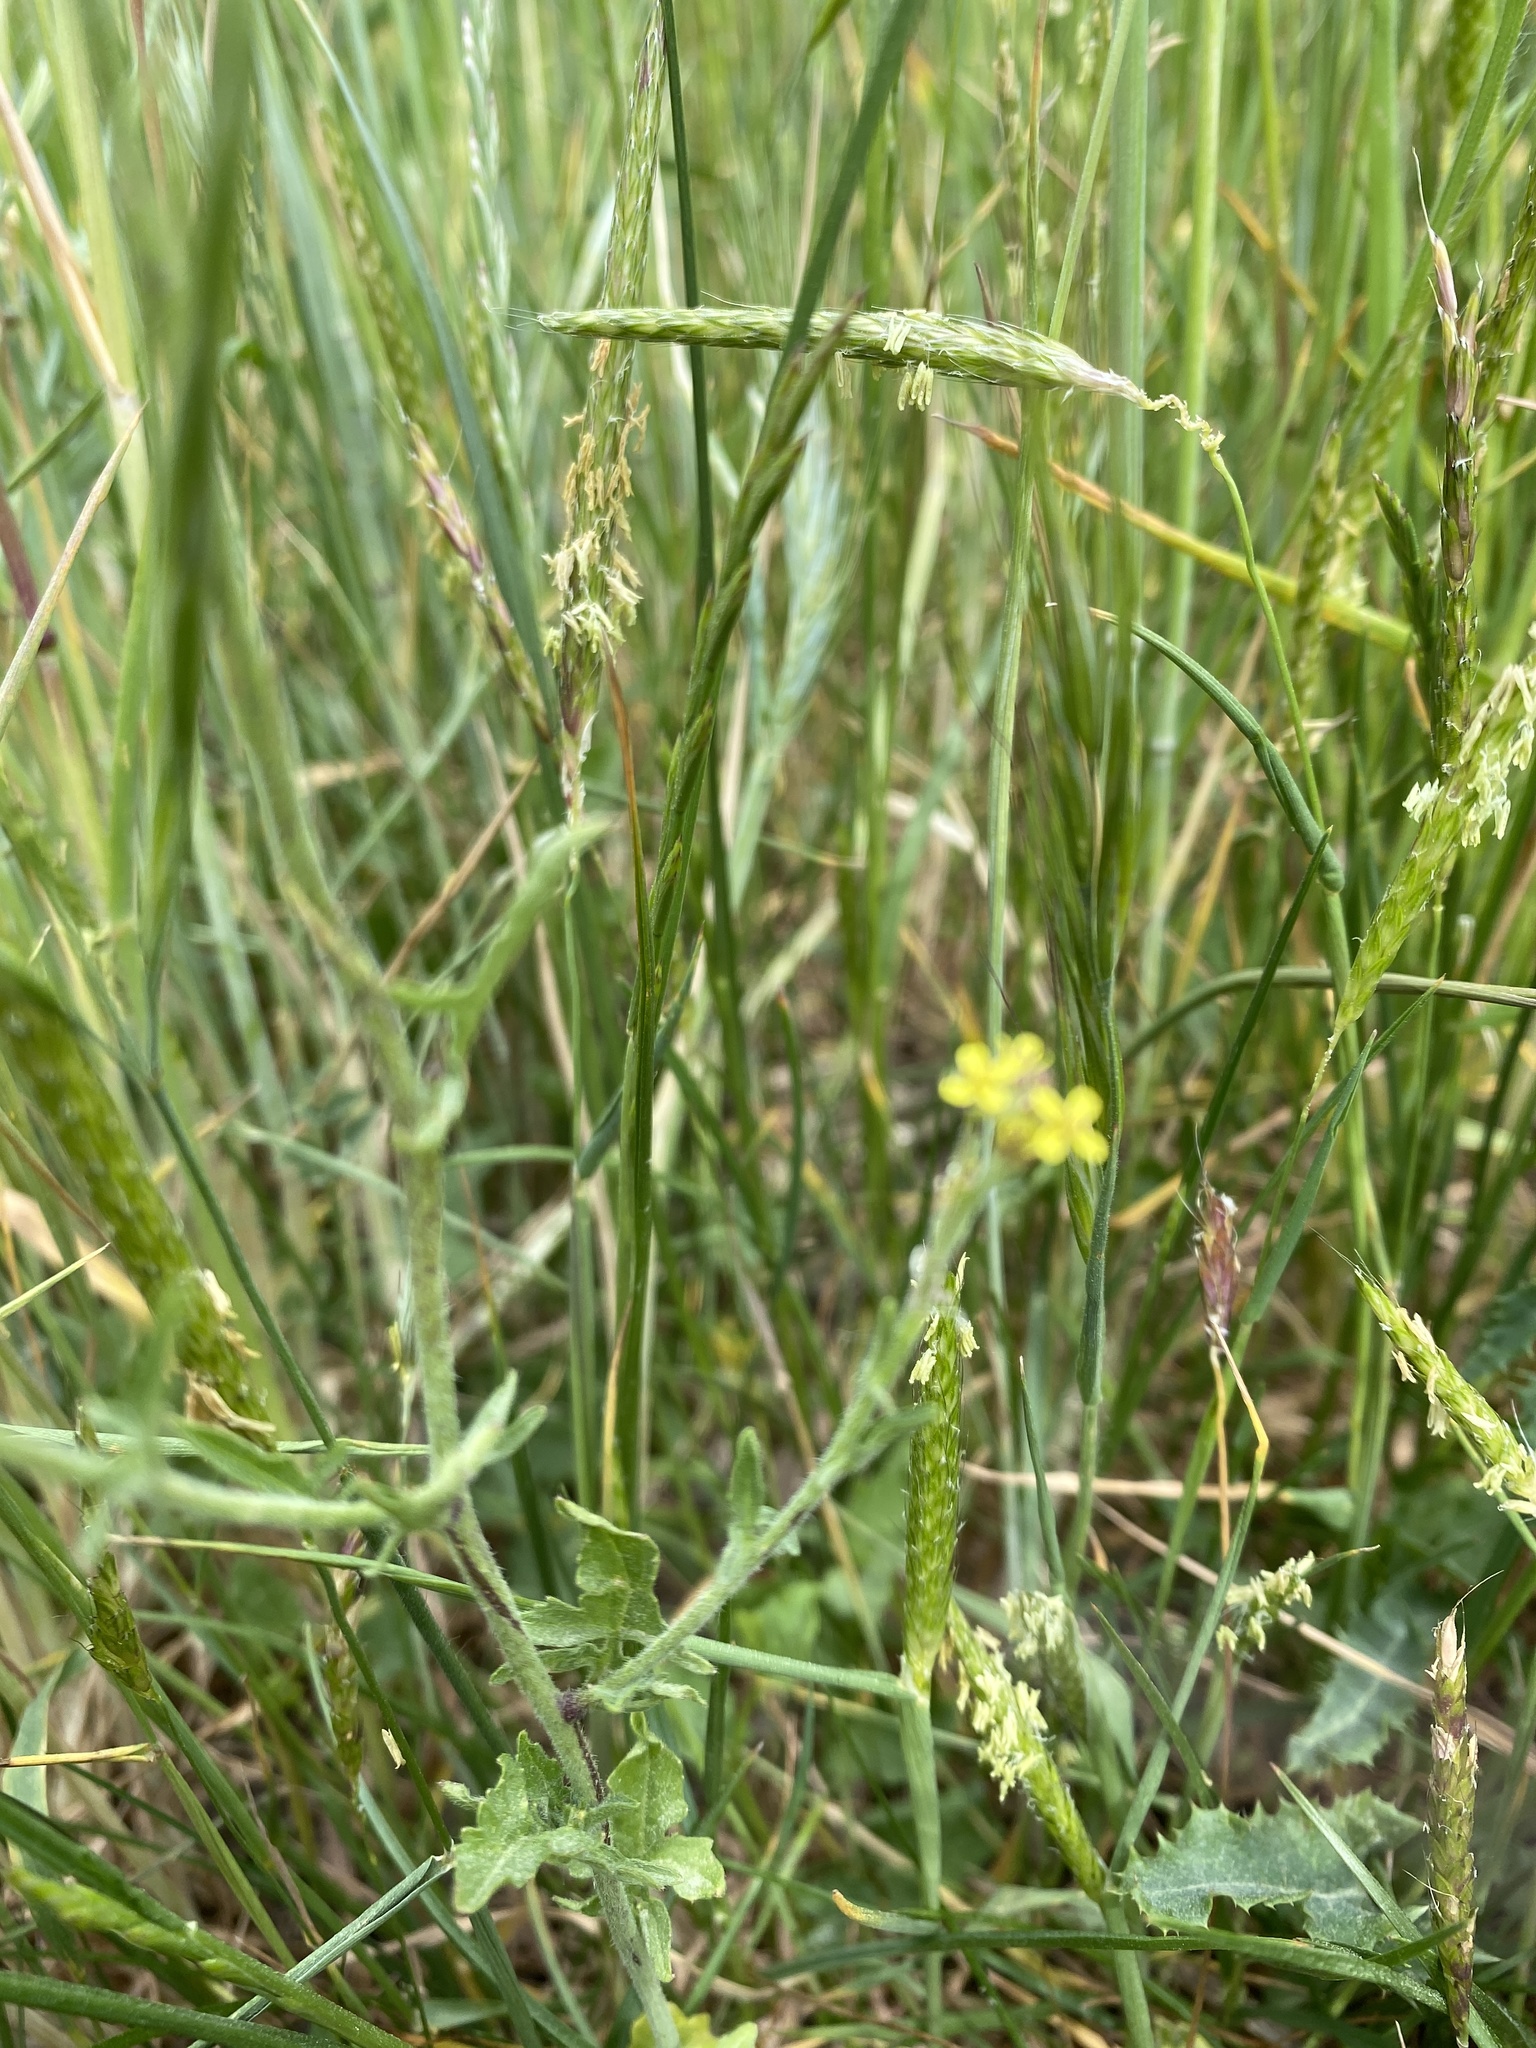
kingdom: Plantae
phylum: Tracheophyta
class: Magnoliopsida
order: Brassicales
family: Brassicaceae
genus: Sisymbrium
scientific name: Sisymbrium officinale
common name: Hedge mustard
